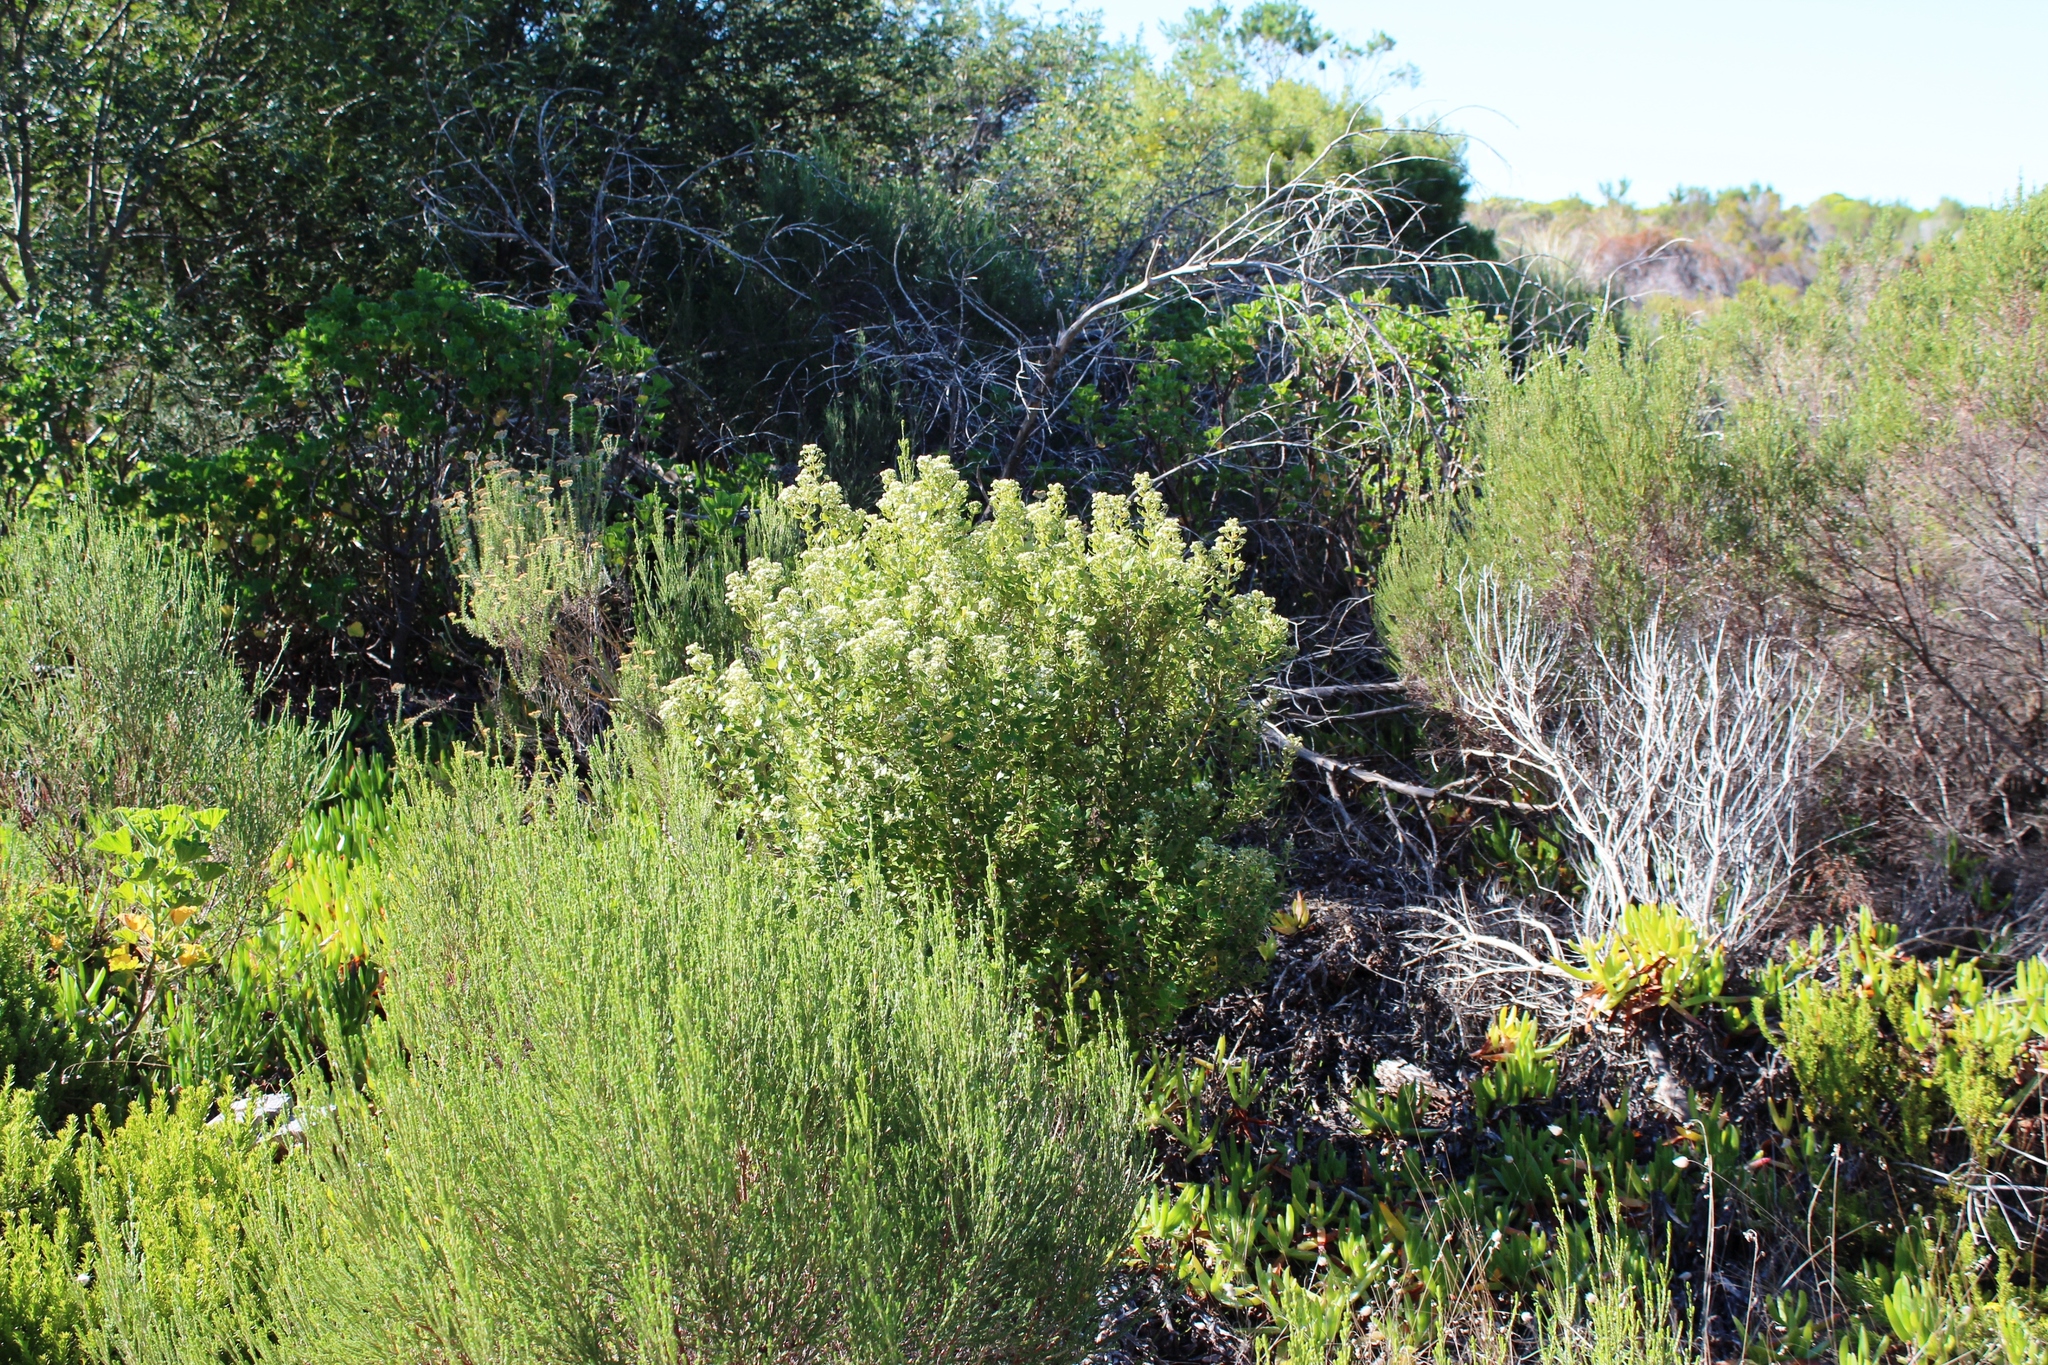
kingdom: Plantae
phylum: Tracheophyta
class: Magnoliopsida
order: Rosales
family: Rhamnaceae
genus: Phylica
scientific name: Phylica buxifolia
